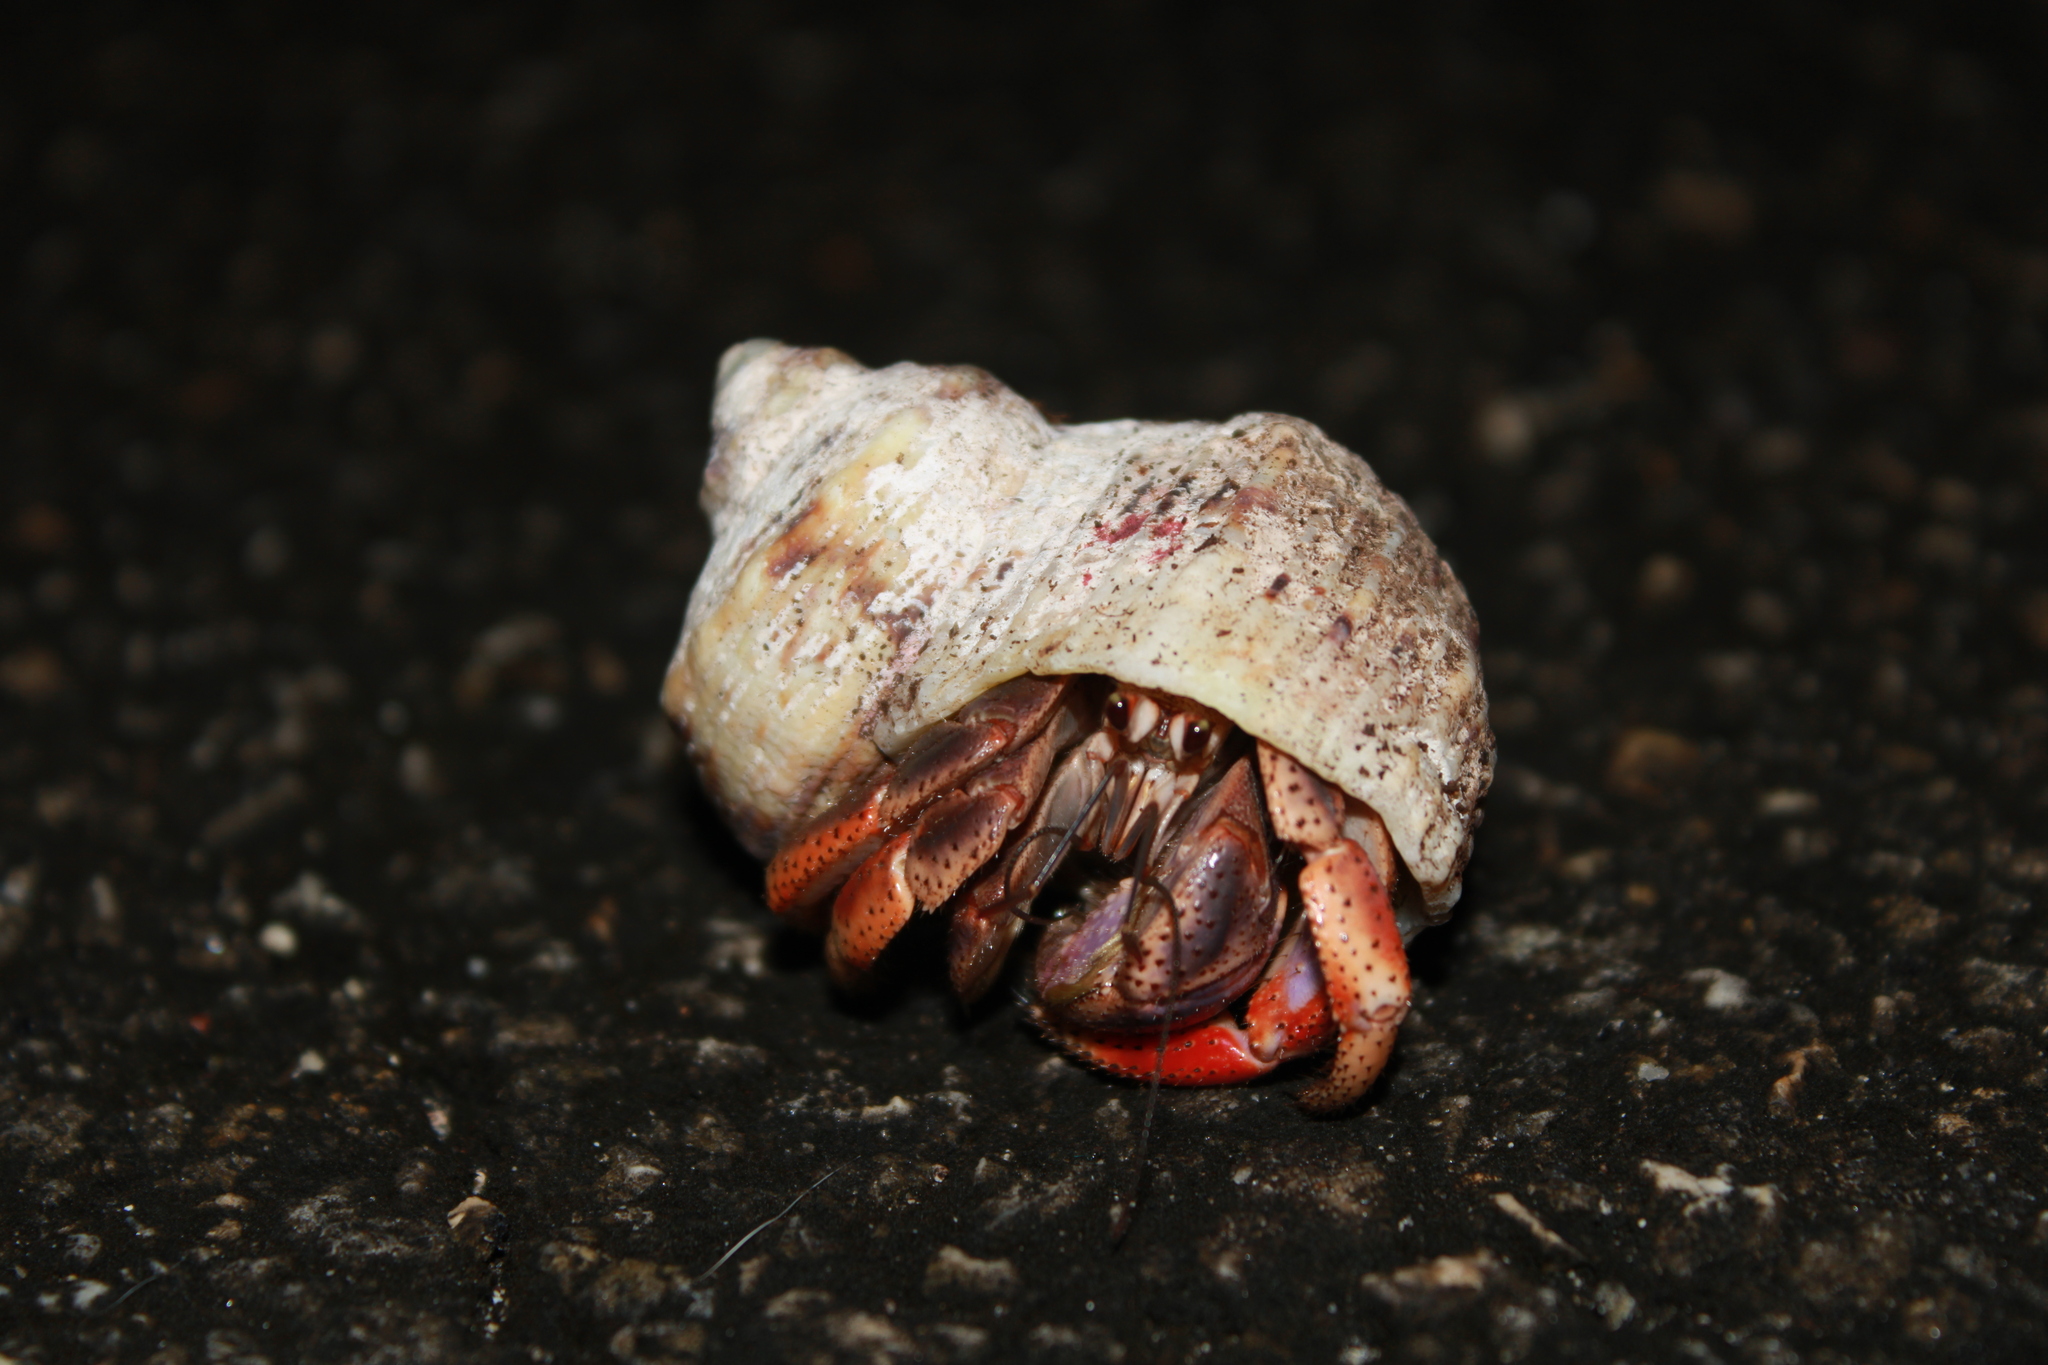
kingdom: Animalia
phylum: Arthropoda
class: Malacostraca
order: Decapoda
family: Coenobitidae
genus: Coenobita
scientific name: Coenobita clypeatus
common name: Caribbean hermit crab
